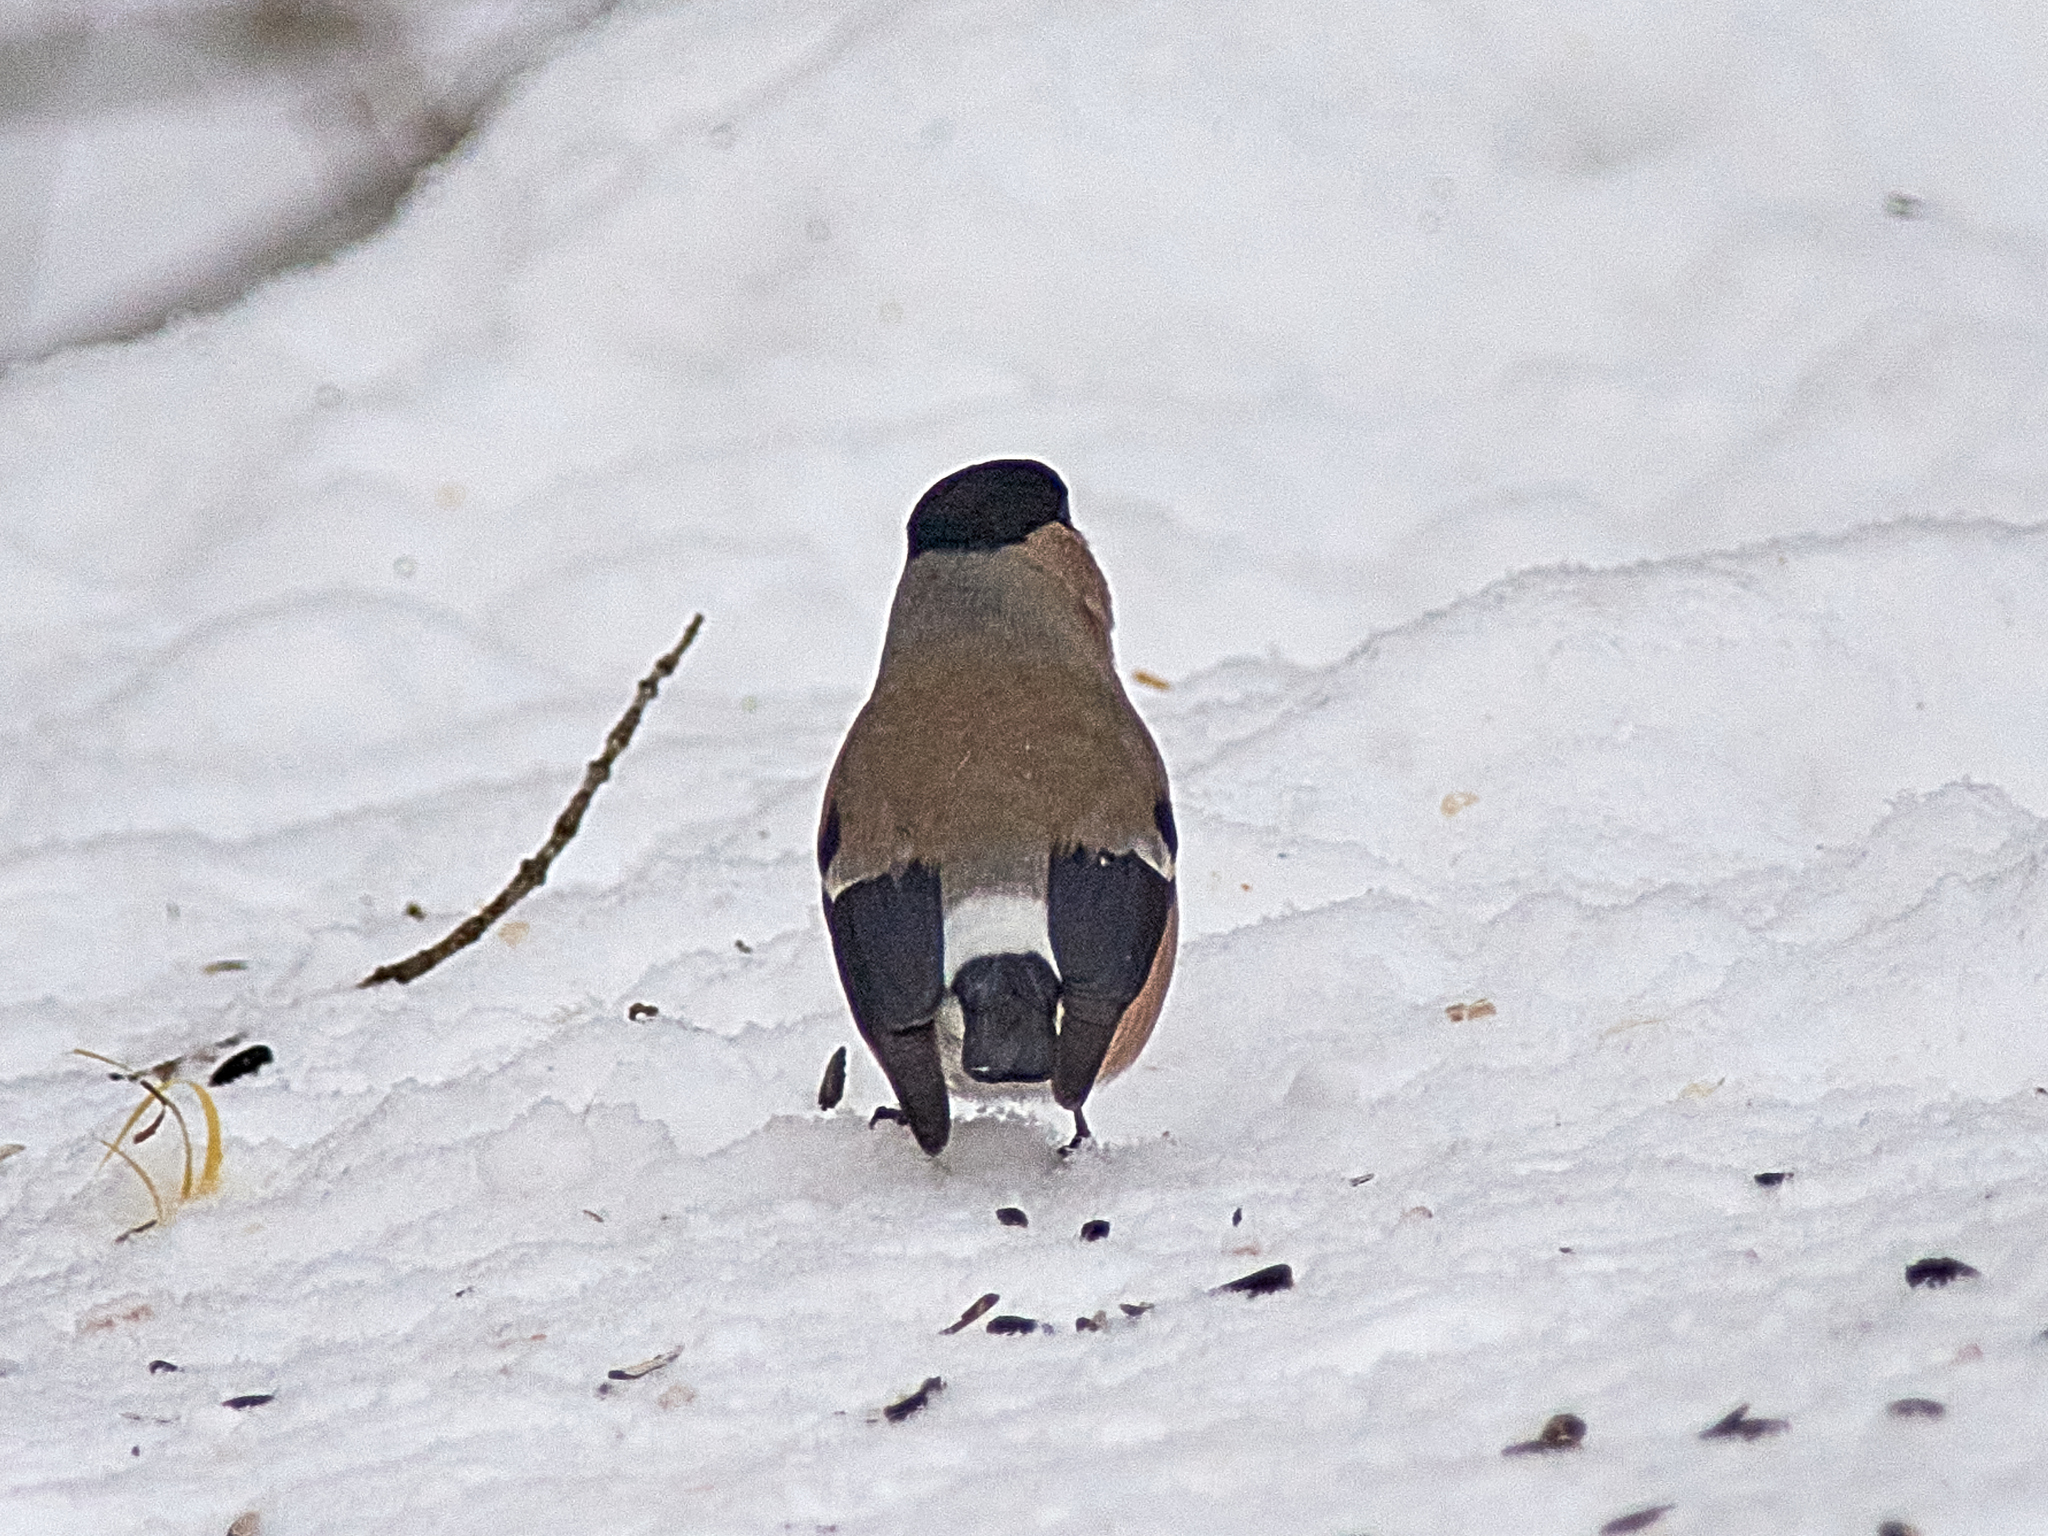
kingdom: Animalia
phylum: Chordata
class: Aves
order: Passeriformes
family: Fringillidae
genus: Pyrrhula
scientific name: Pyrrhula pyrrhula
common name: Eurasian bullfinch
